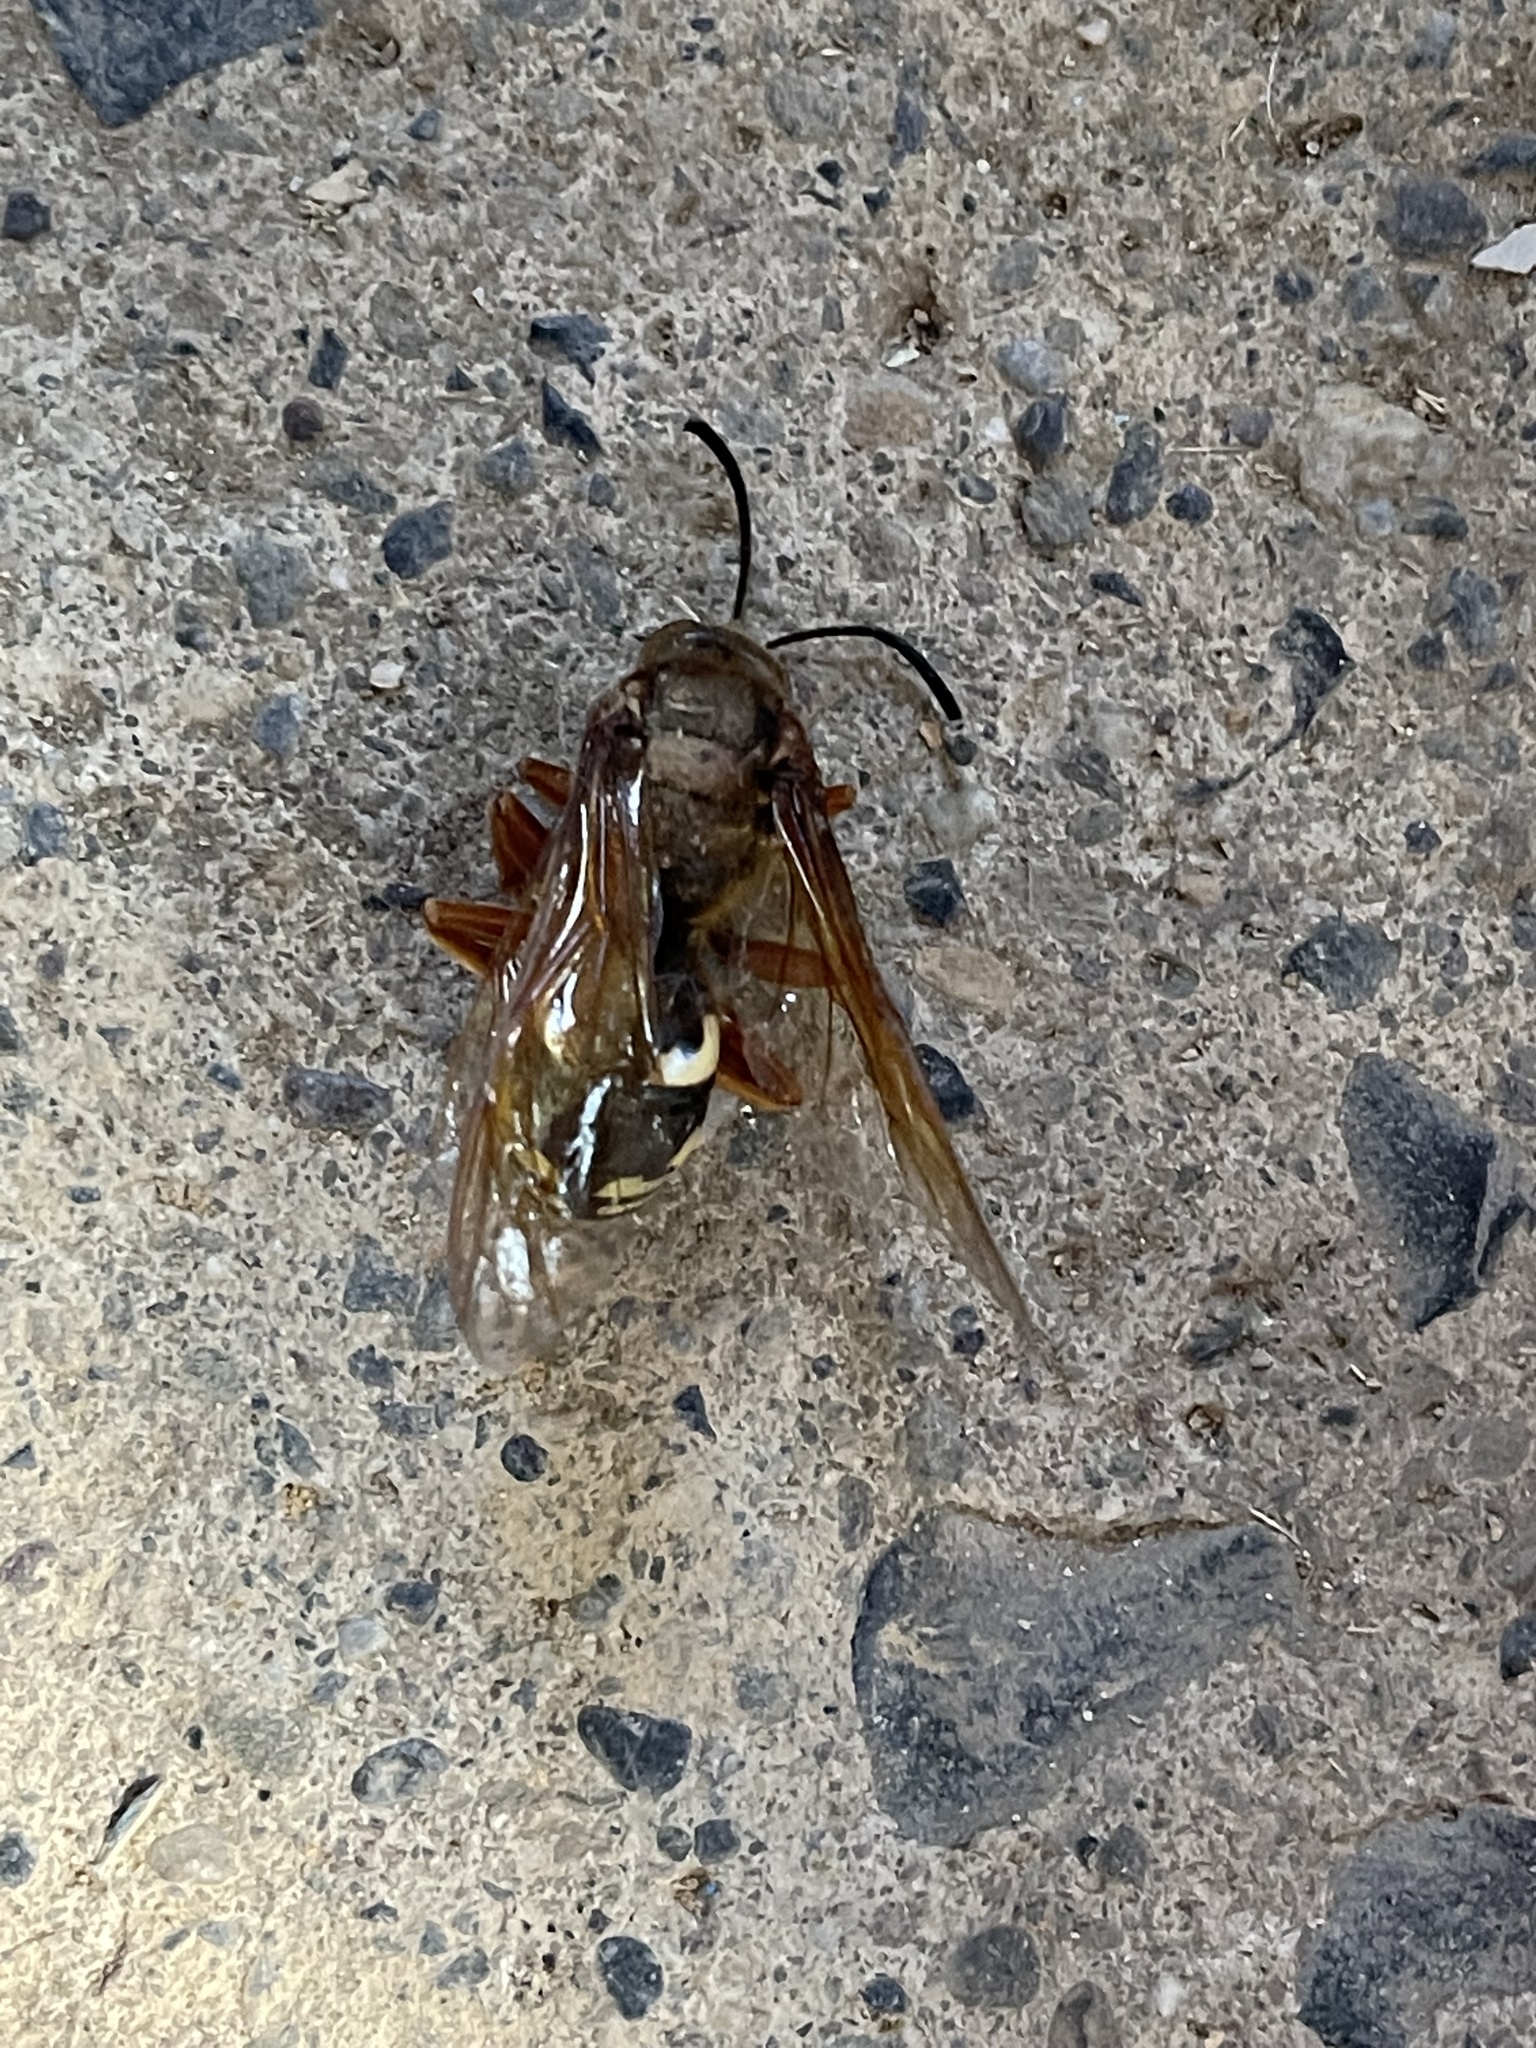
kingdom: Animalia
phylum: Arthropoda
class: Insecta
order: Hymenoptera
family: Crabronidae
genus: Sphecius
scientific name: Sphecius speciosus
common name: Cicada killer
